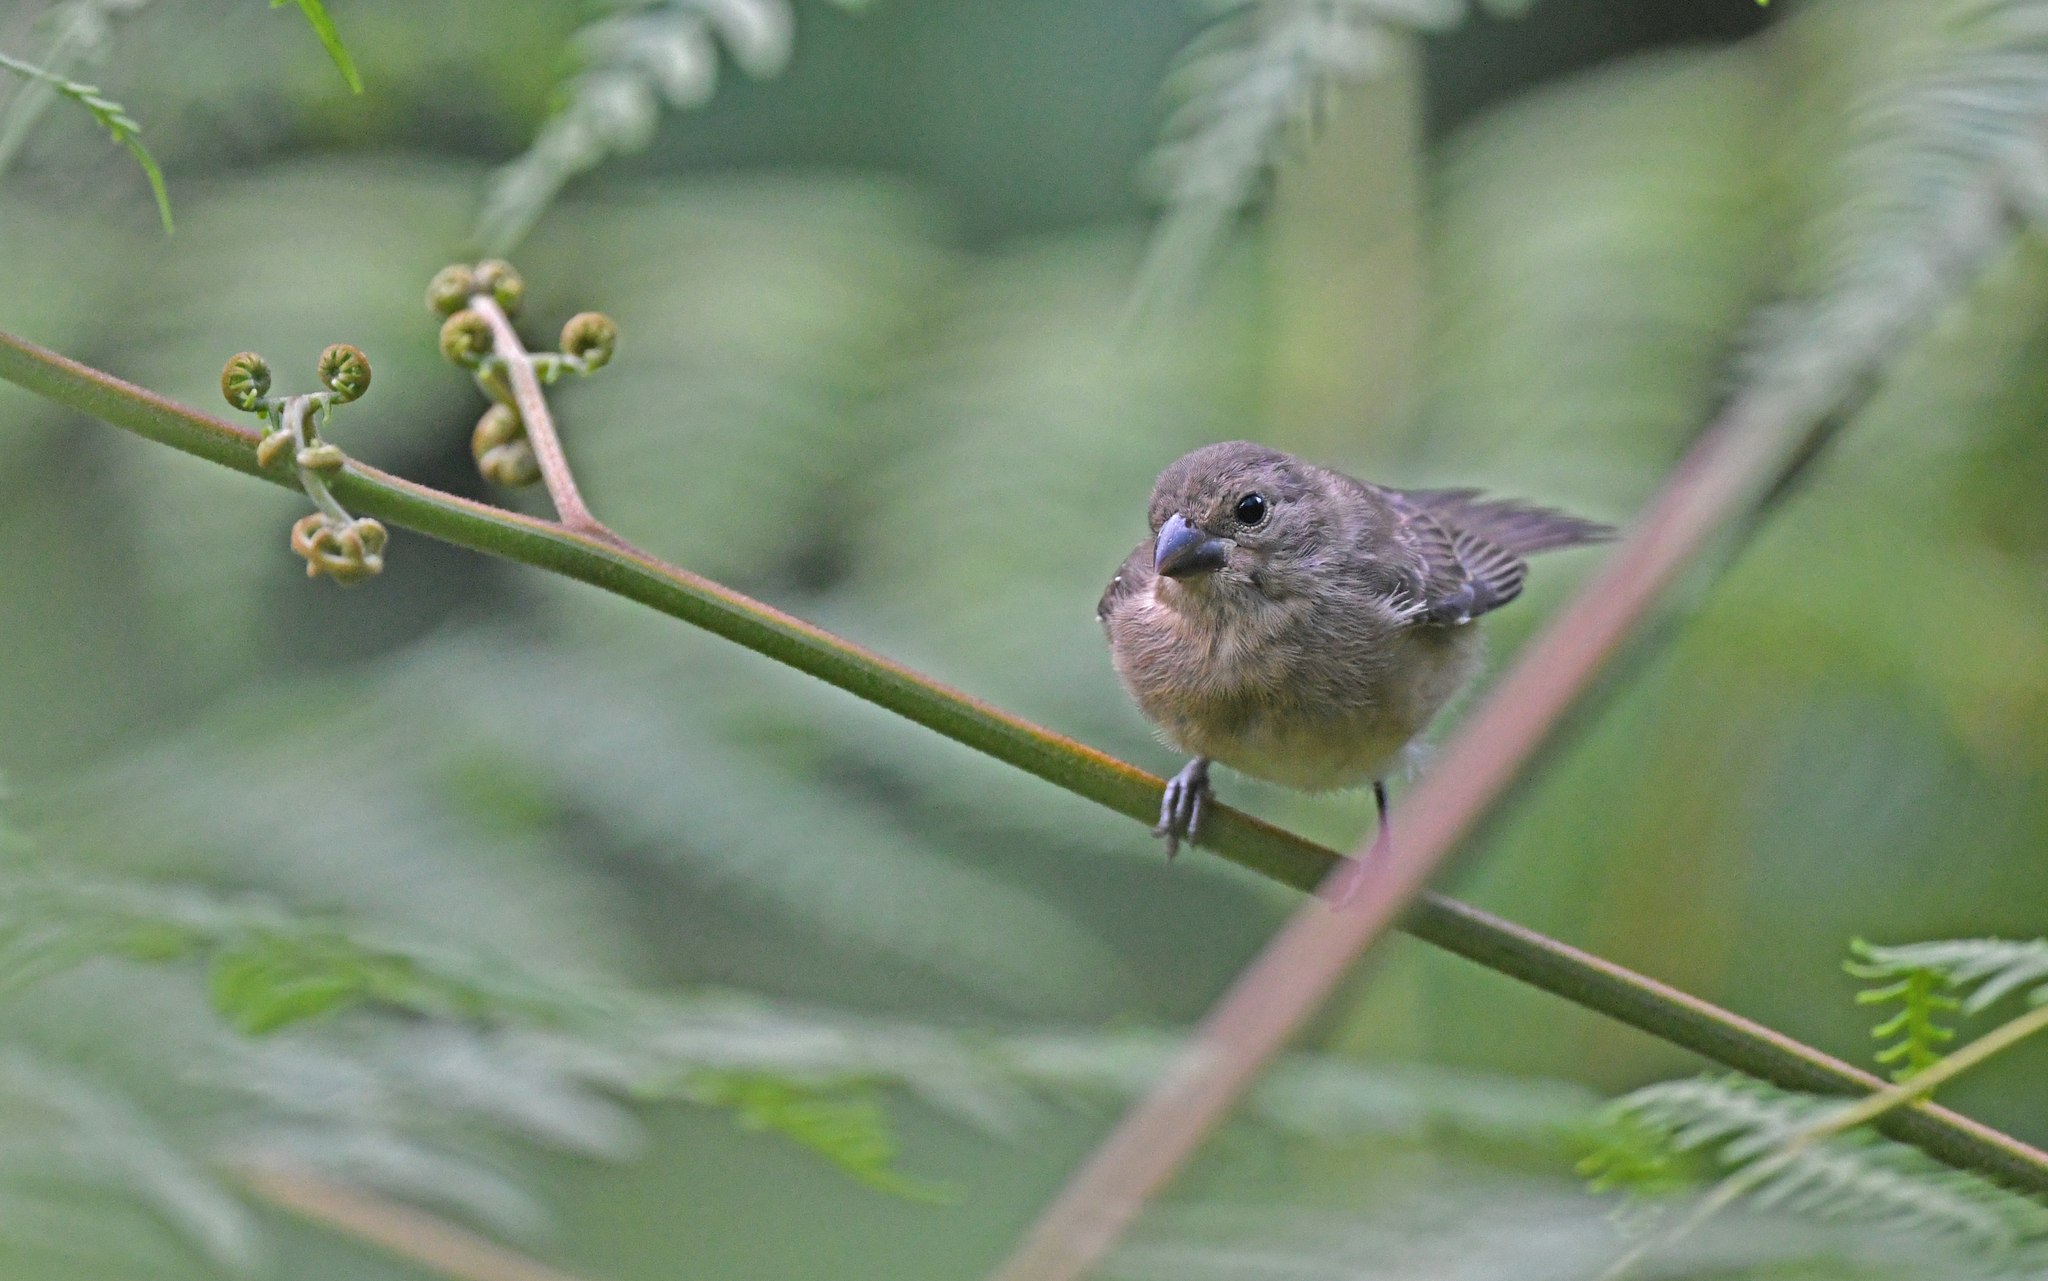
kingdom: Animalia
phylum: Chordata
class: Aves
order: Passeriformes
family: Thraupidae
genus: Sporophila
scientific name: Sporophila nigricollis
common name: Yellow-bellied seedeater
